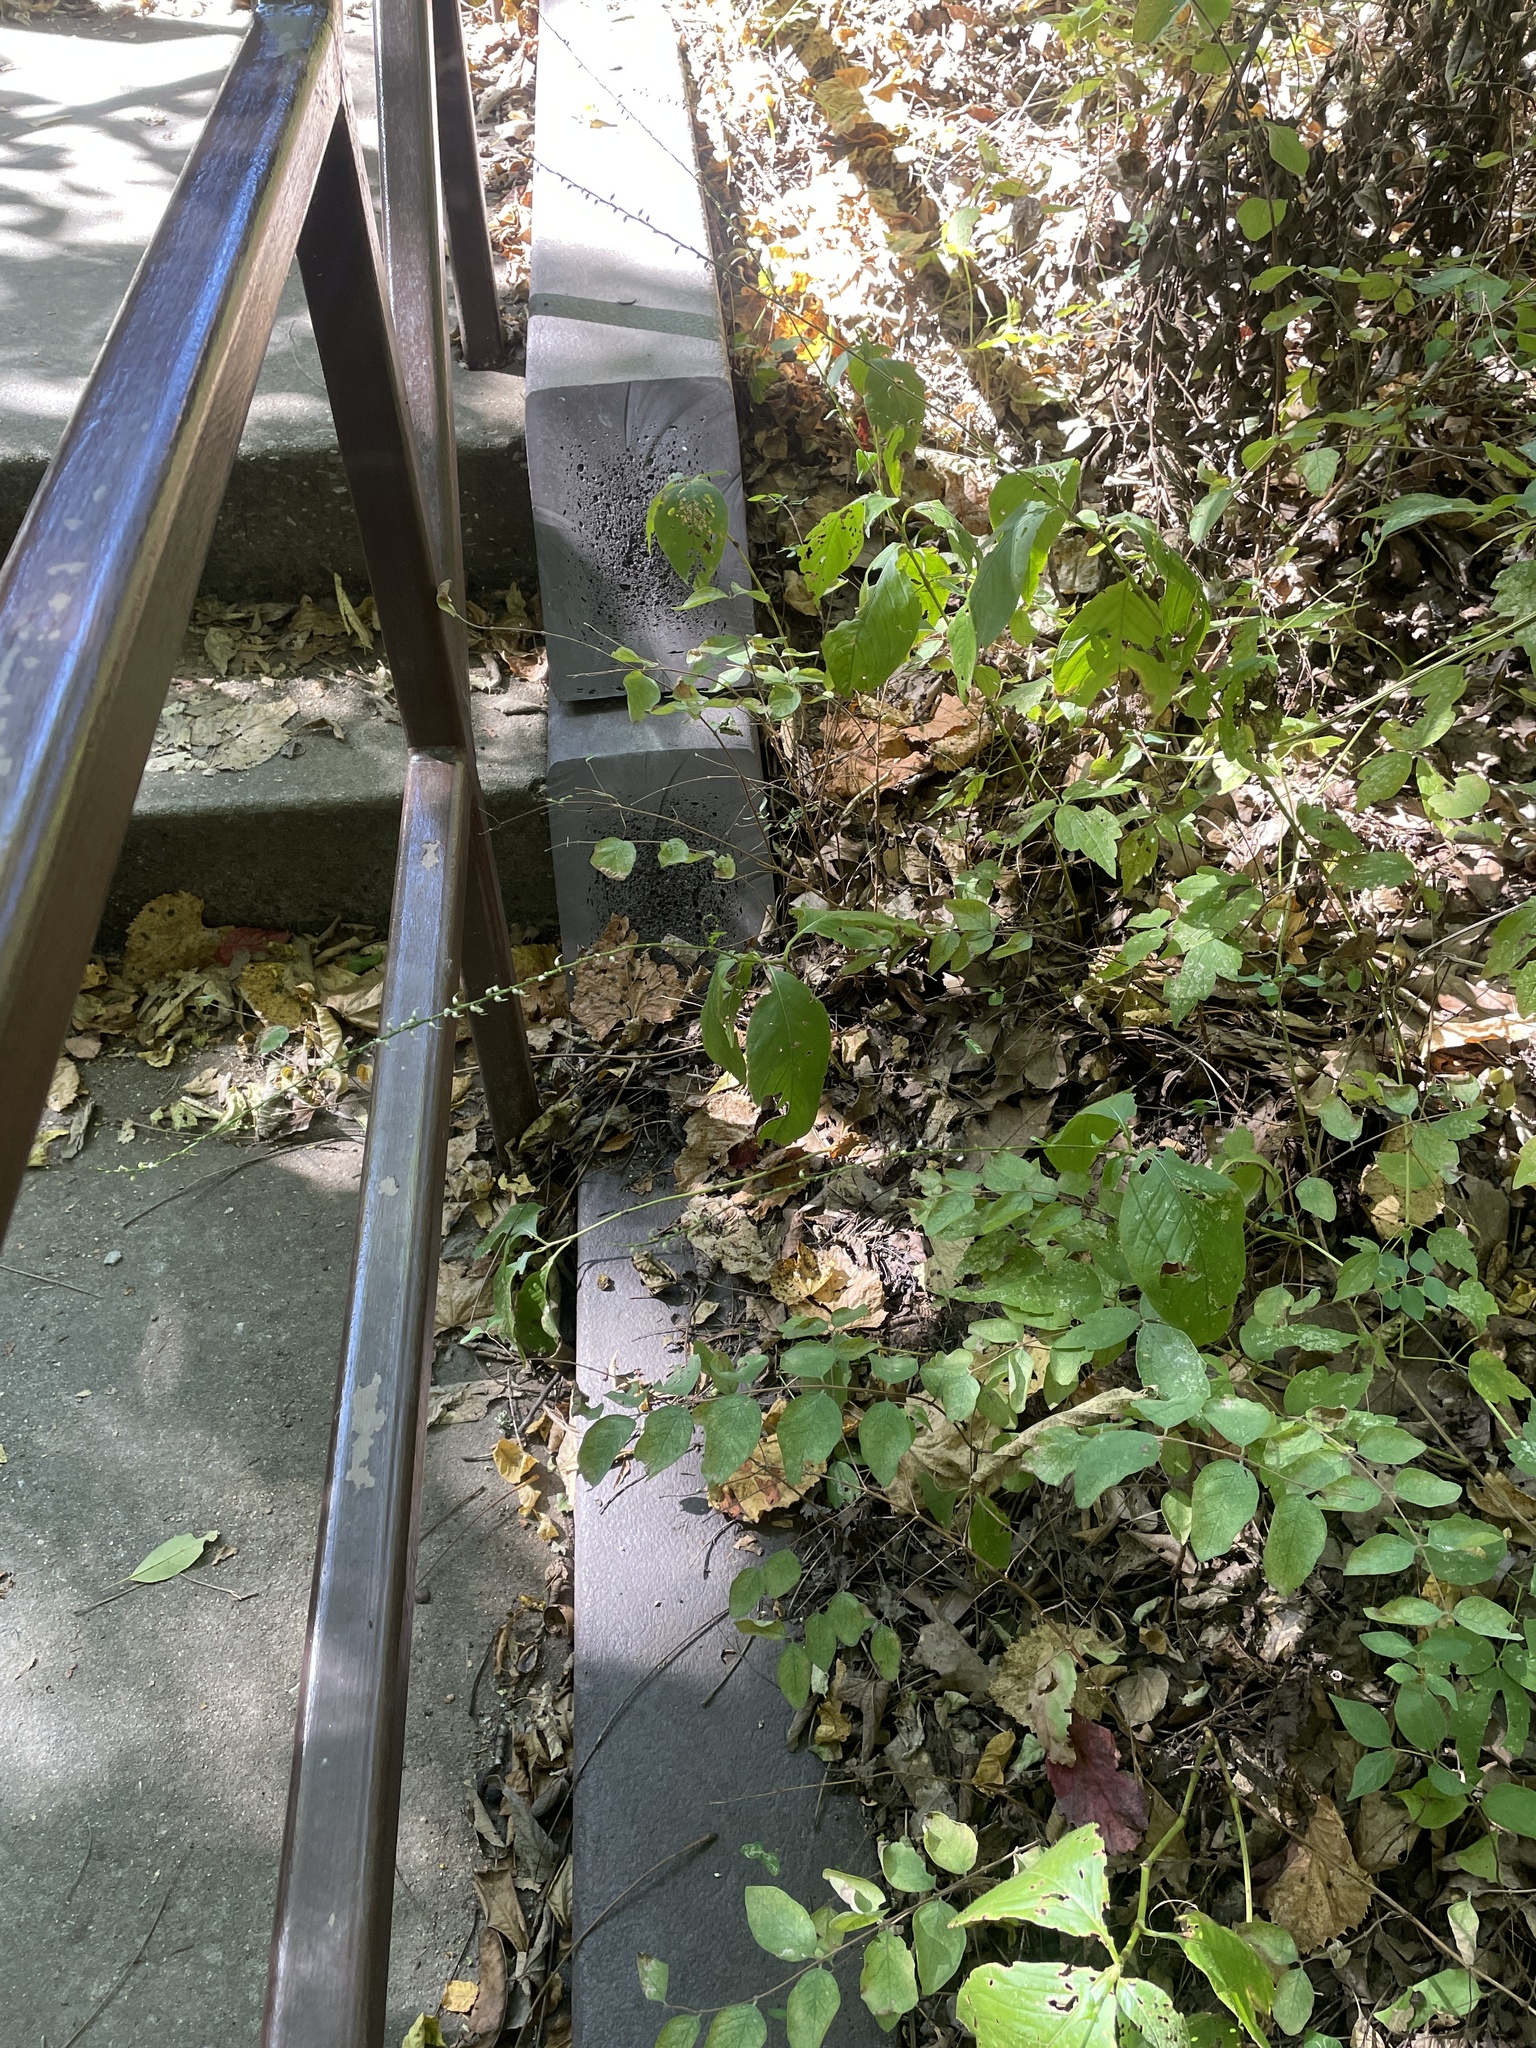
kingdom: Plantae
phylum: Tracheophyta
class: Magnoliopsida
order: Caryophyllales
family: Polygonaceae
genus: Persicaria
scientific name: Persicaria virginiana
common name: Jumpseed
